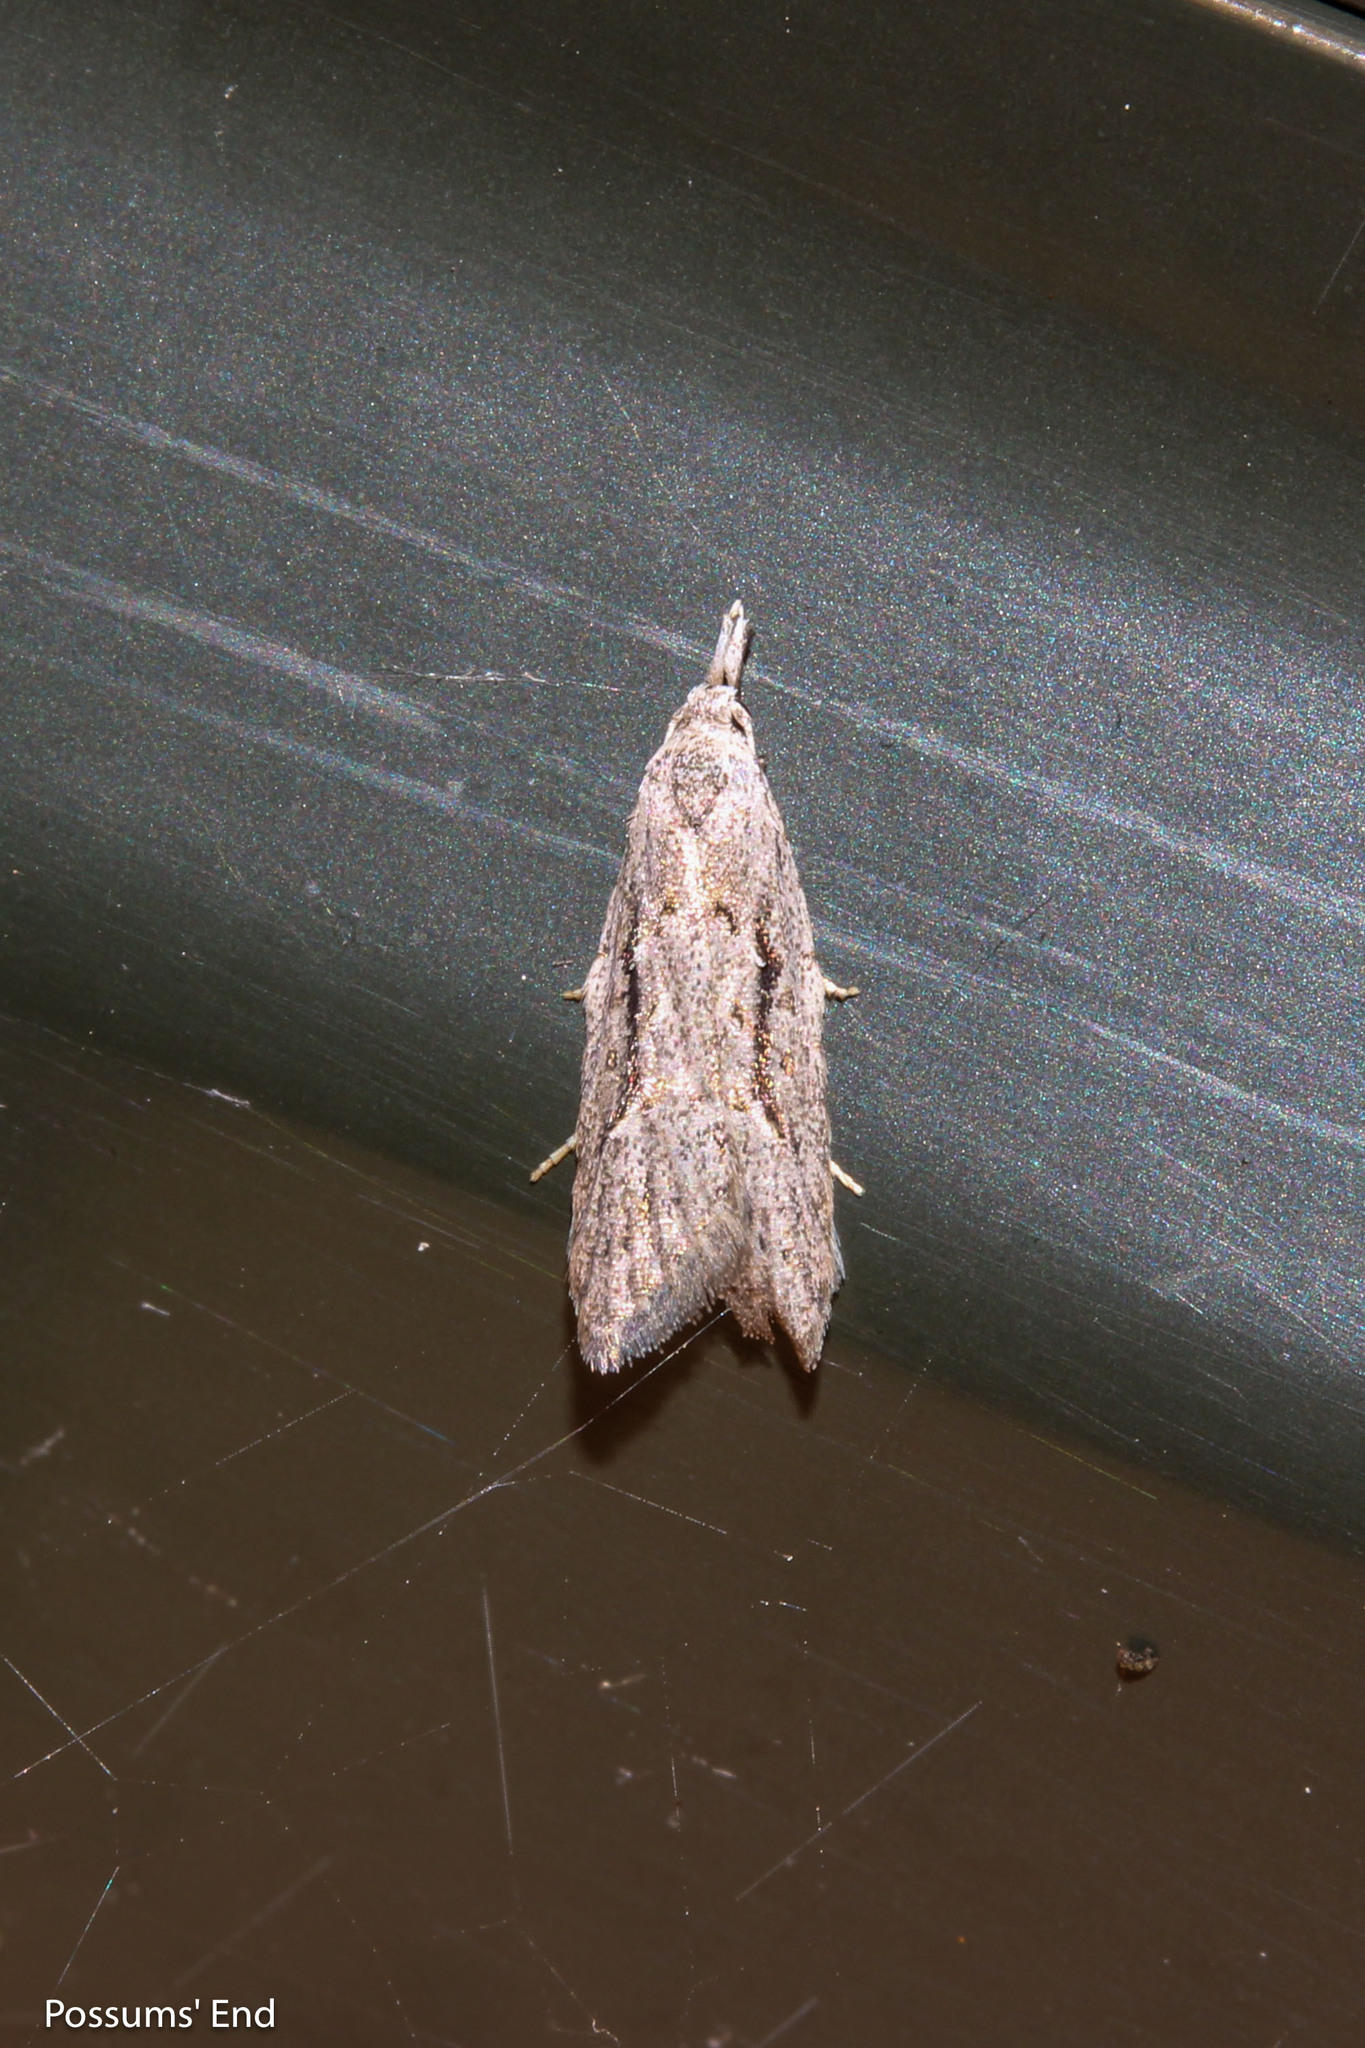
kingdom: Animalia
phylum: Arthropoda
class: Insecta
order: Lepidoptera
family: Carposinidae
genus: Carposina
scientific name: Carposina
